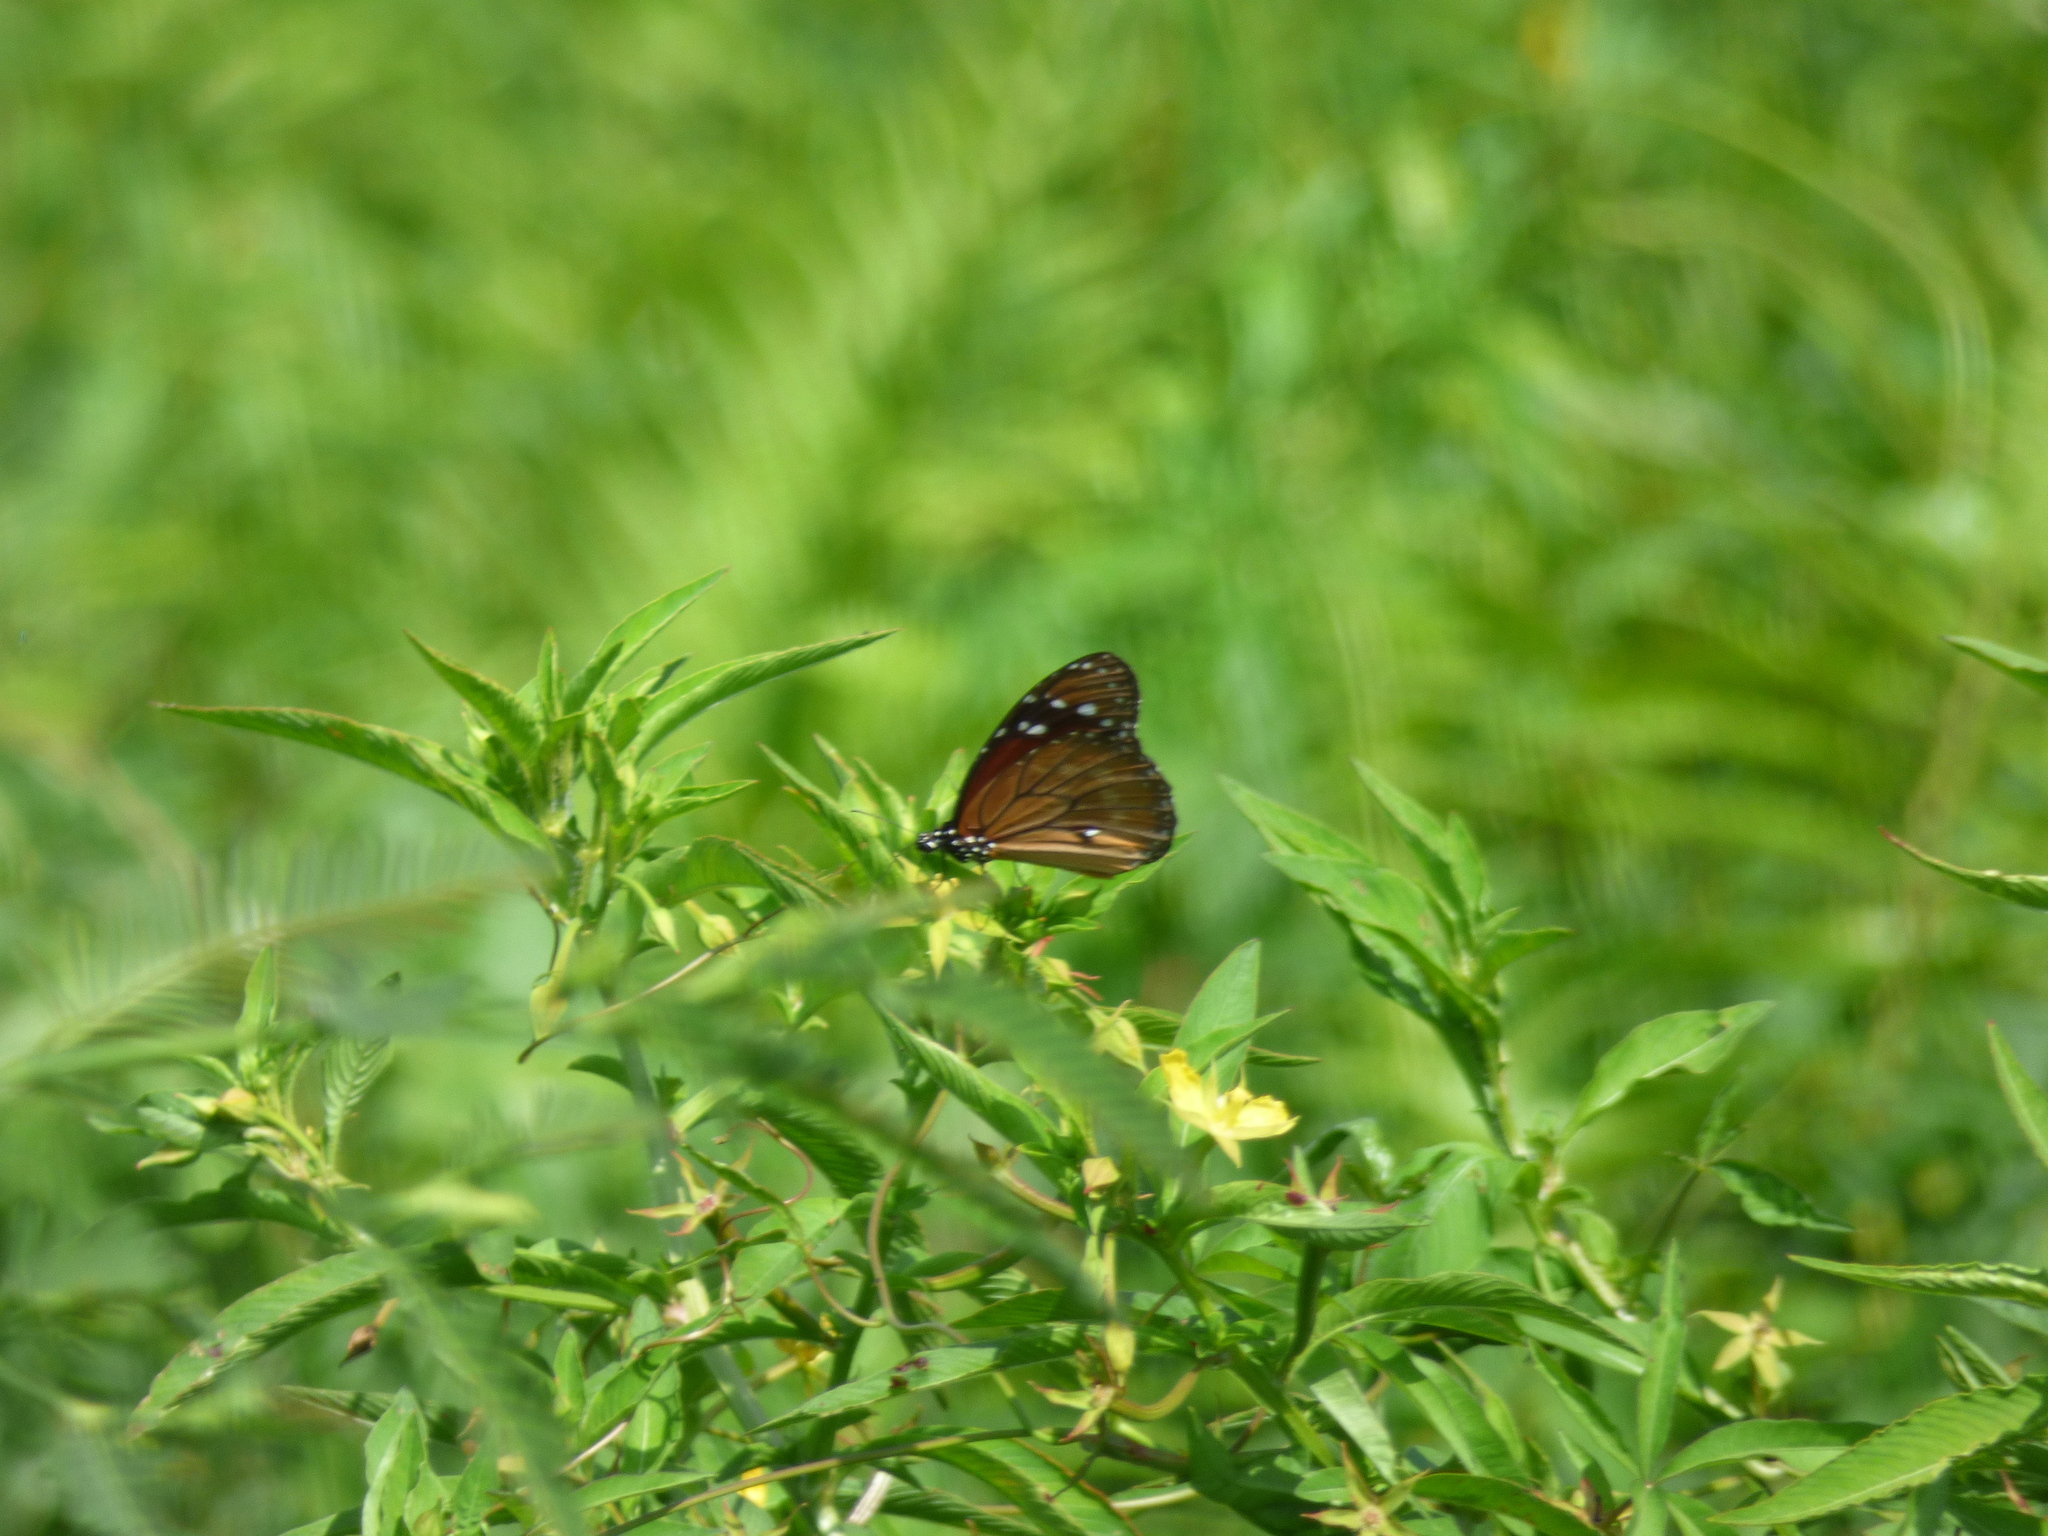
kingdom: Animalia
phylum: Arthropoda
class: Insecta
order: Lepidoptera
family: Nymphalidae
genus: Danaus
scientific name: Danaus eresimus
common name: Soldier
